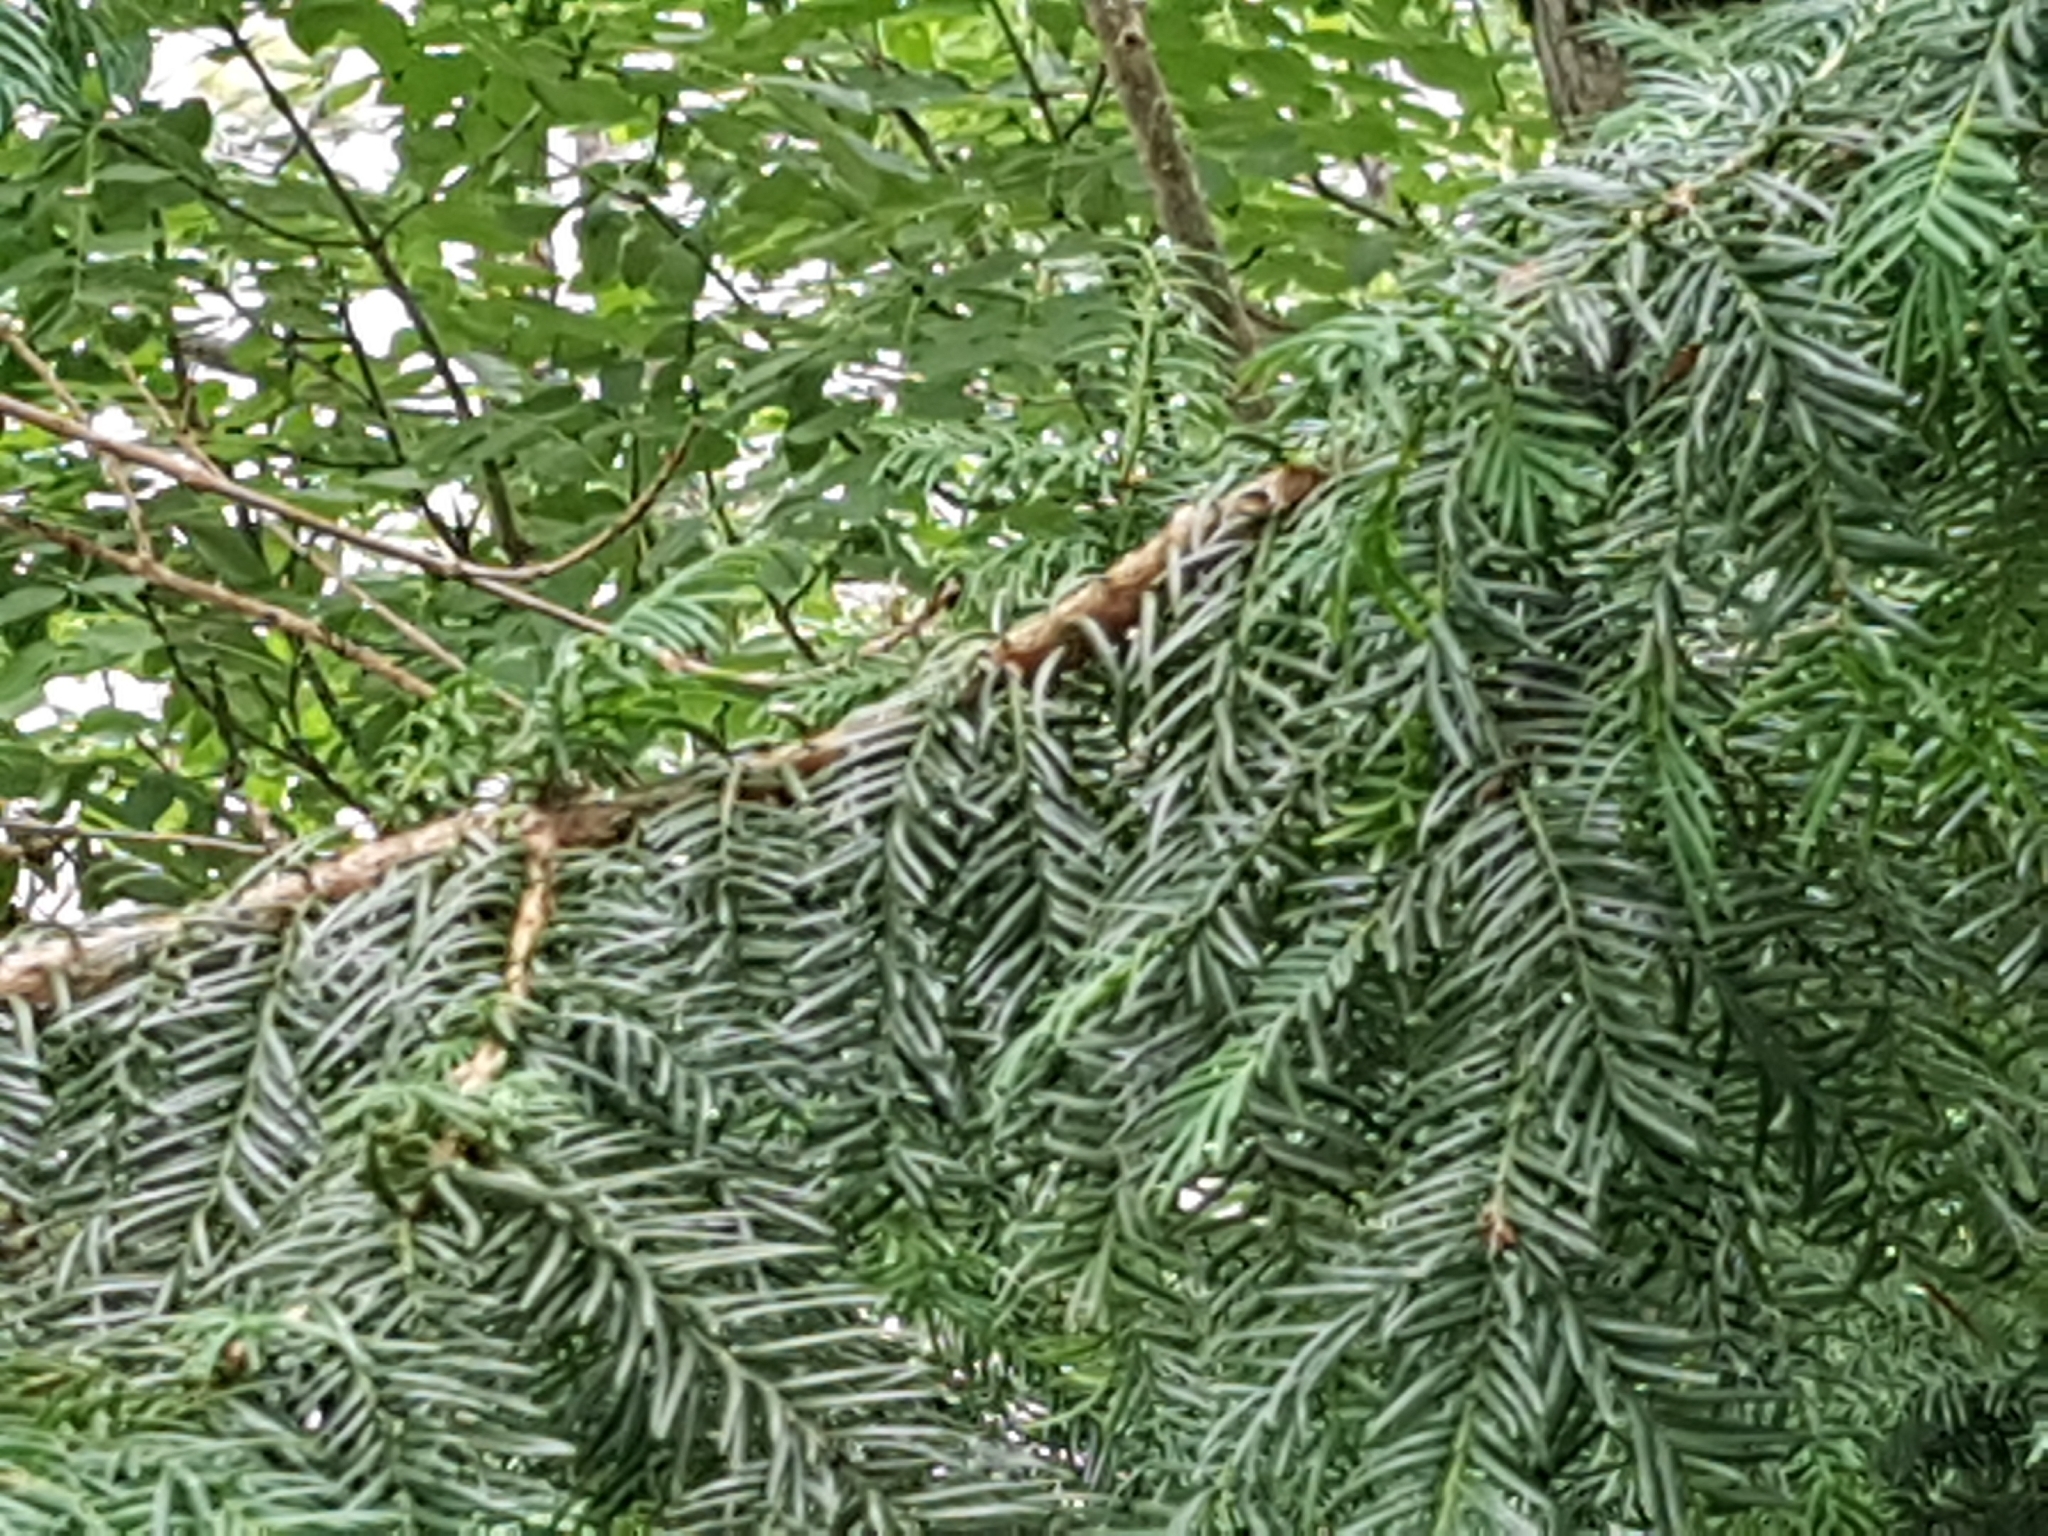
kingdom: Plantae
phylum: Tracheophyta
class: Pinopsida
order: Pinales
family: Taxaceae
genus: Taxus
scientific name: Taxus baccata
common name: Yew
